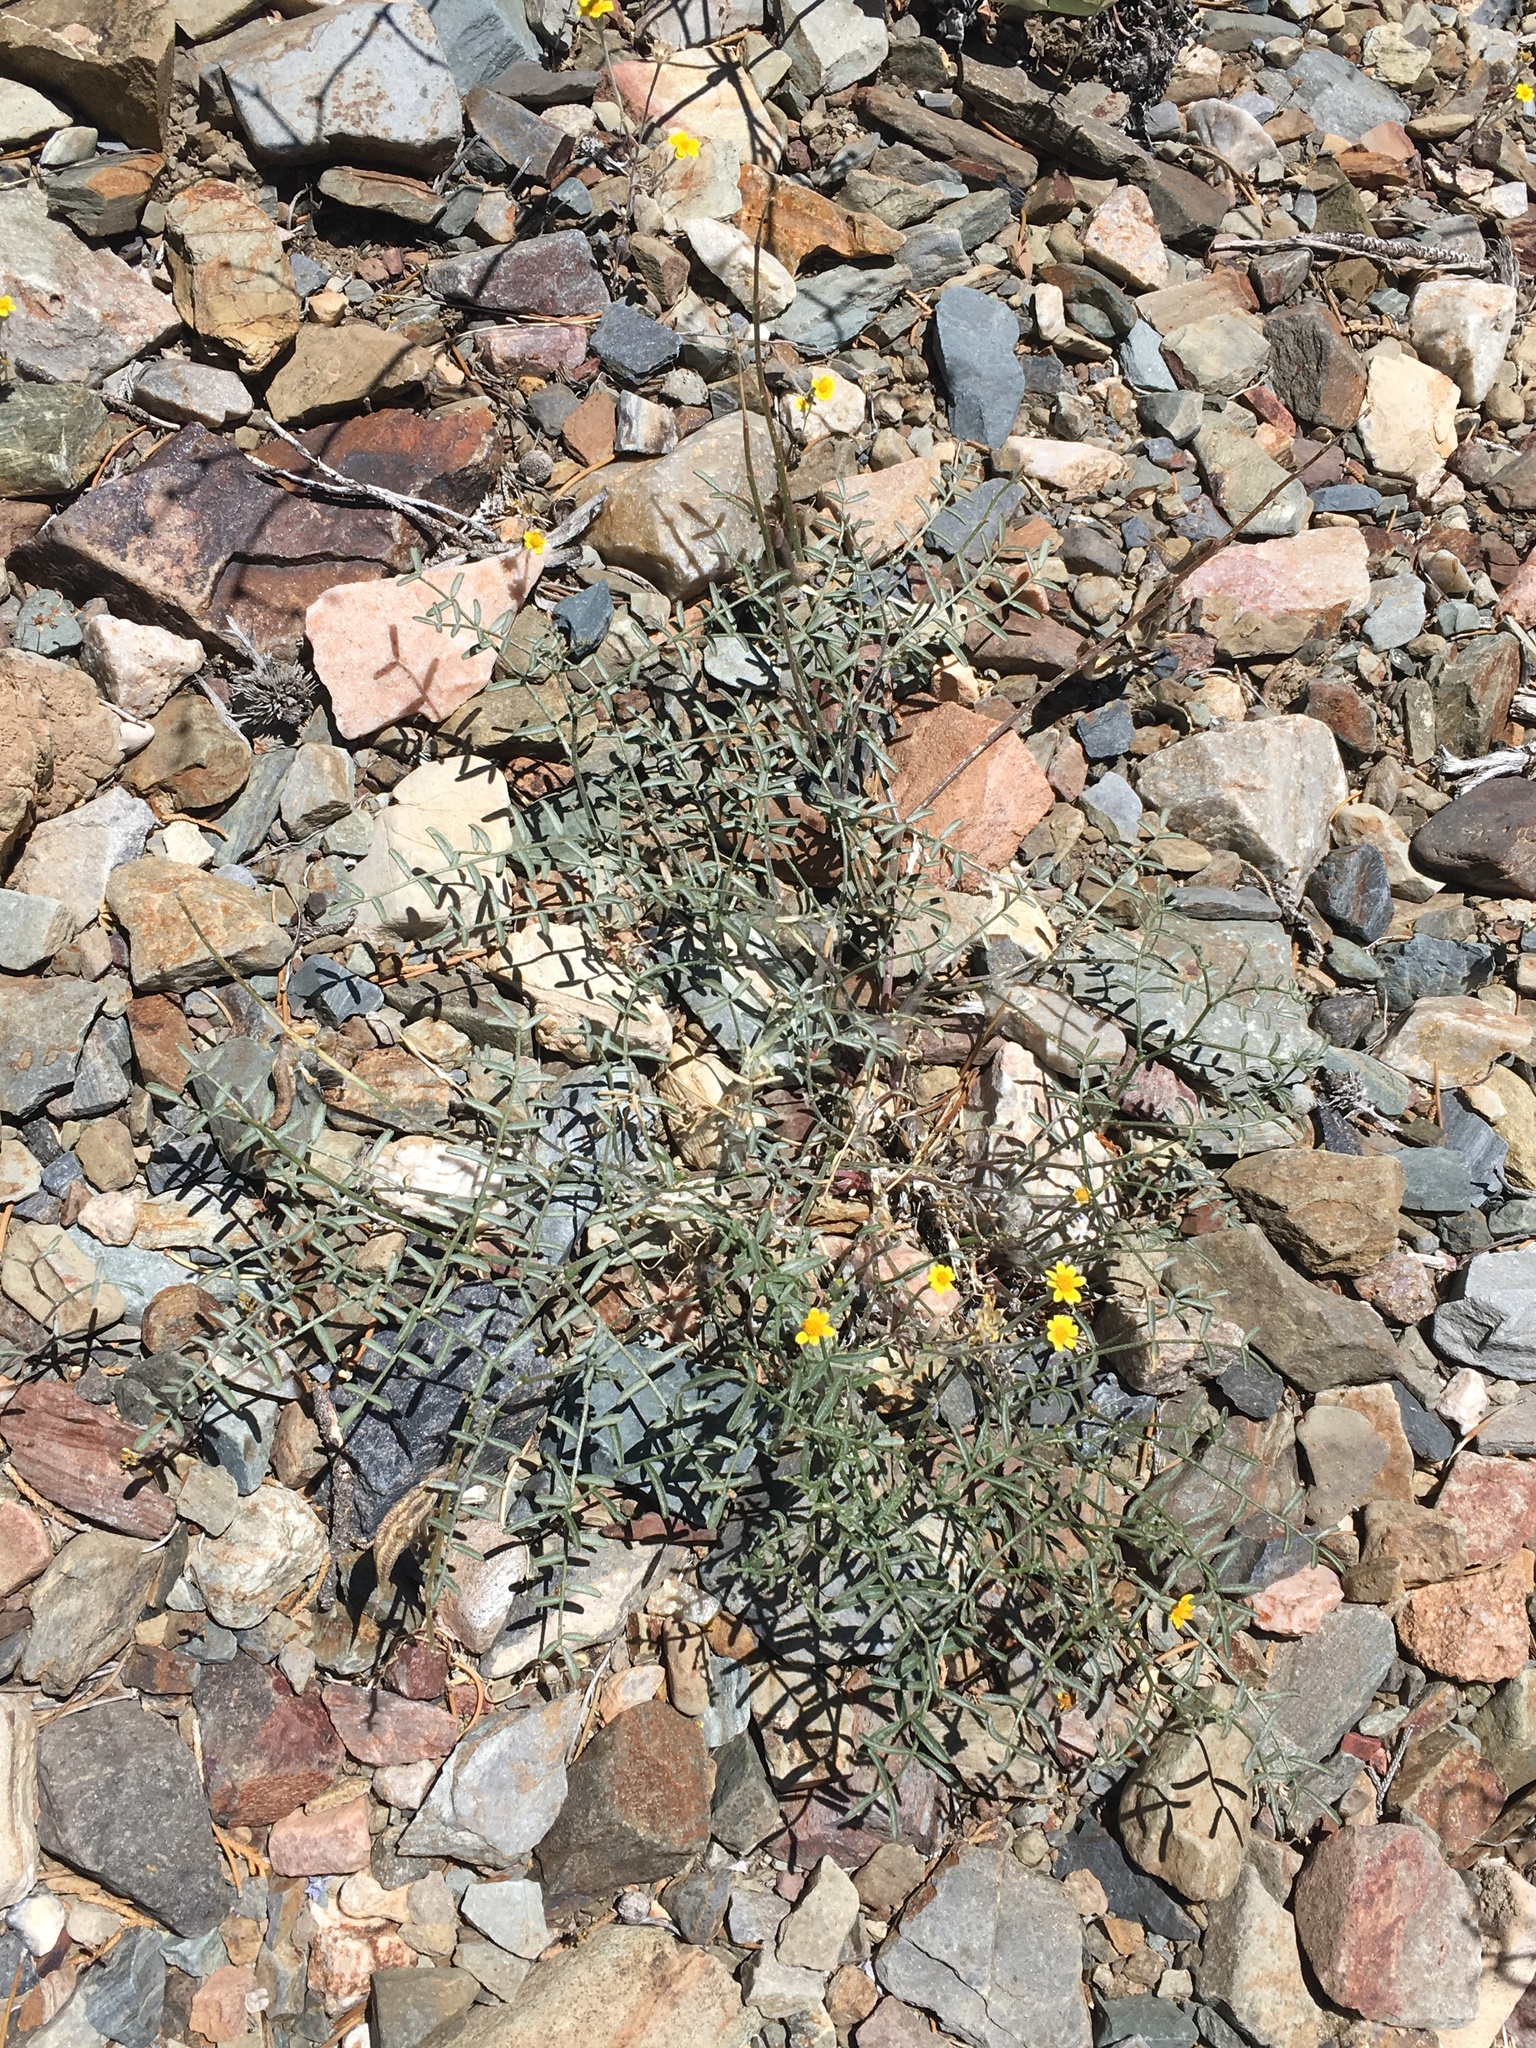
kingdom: Plantae
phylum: Tracheophyta
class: Magnoliopsida
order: Fabales
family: Fabaceae
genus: Astragalus
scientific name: Astragalus casei
